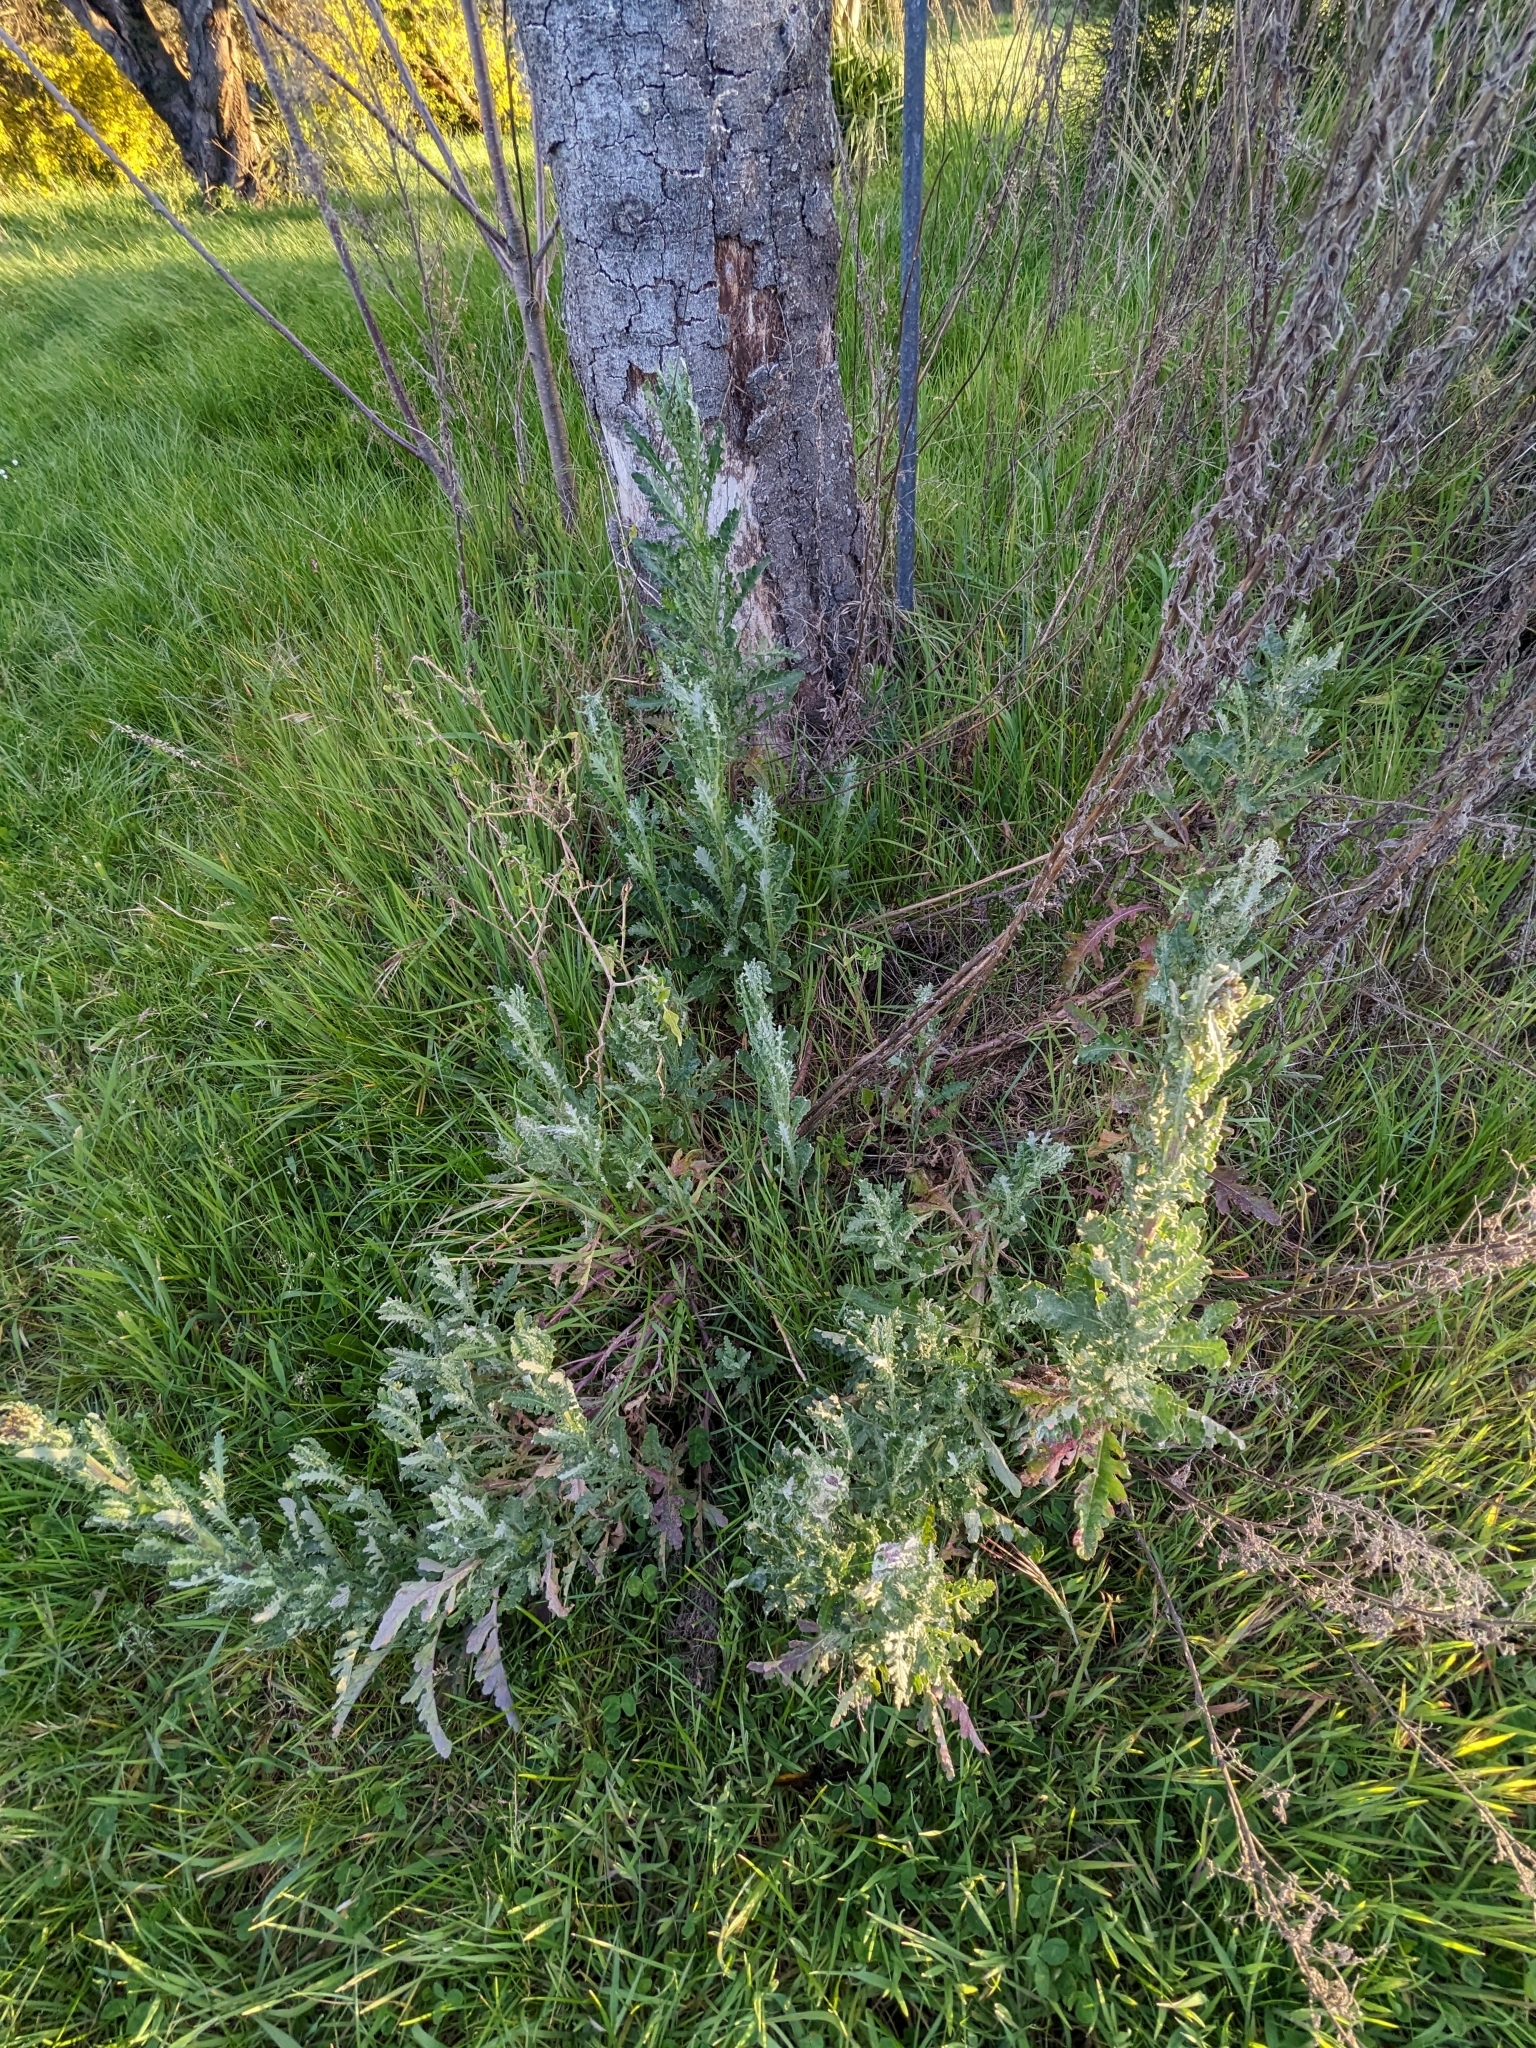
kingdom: Plantae
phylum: Tracheophyta
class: Magnoliopsida
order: Asterales
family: Asteraceae
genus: Senecio
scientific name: Senecio glomeratus
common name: Cutleaf burnweed
